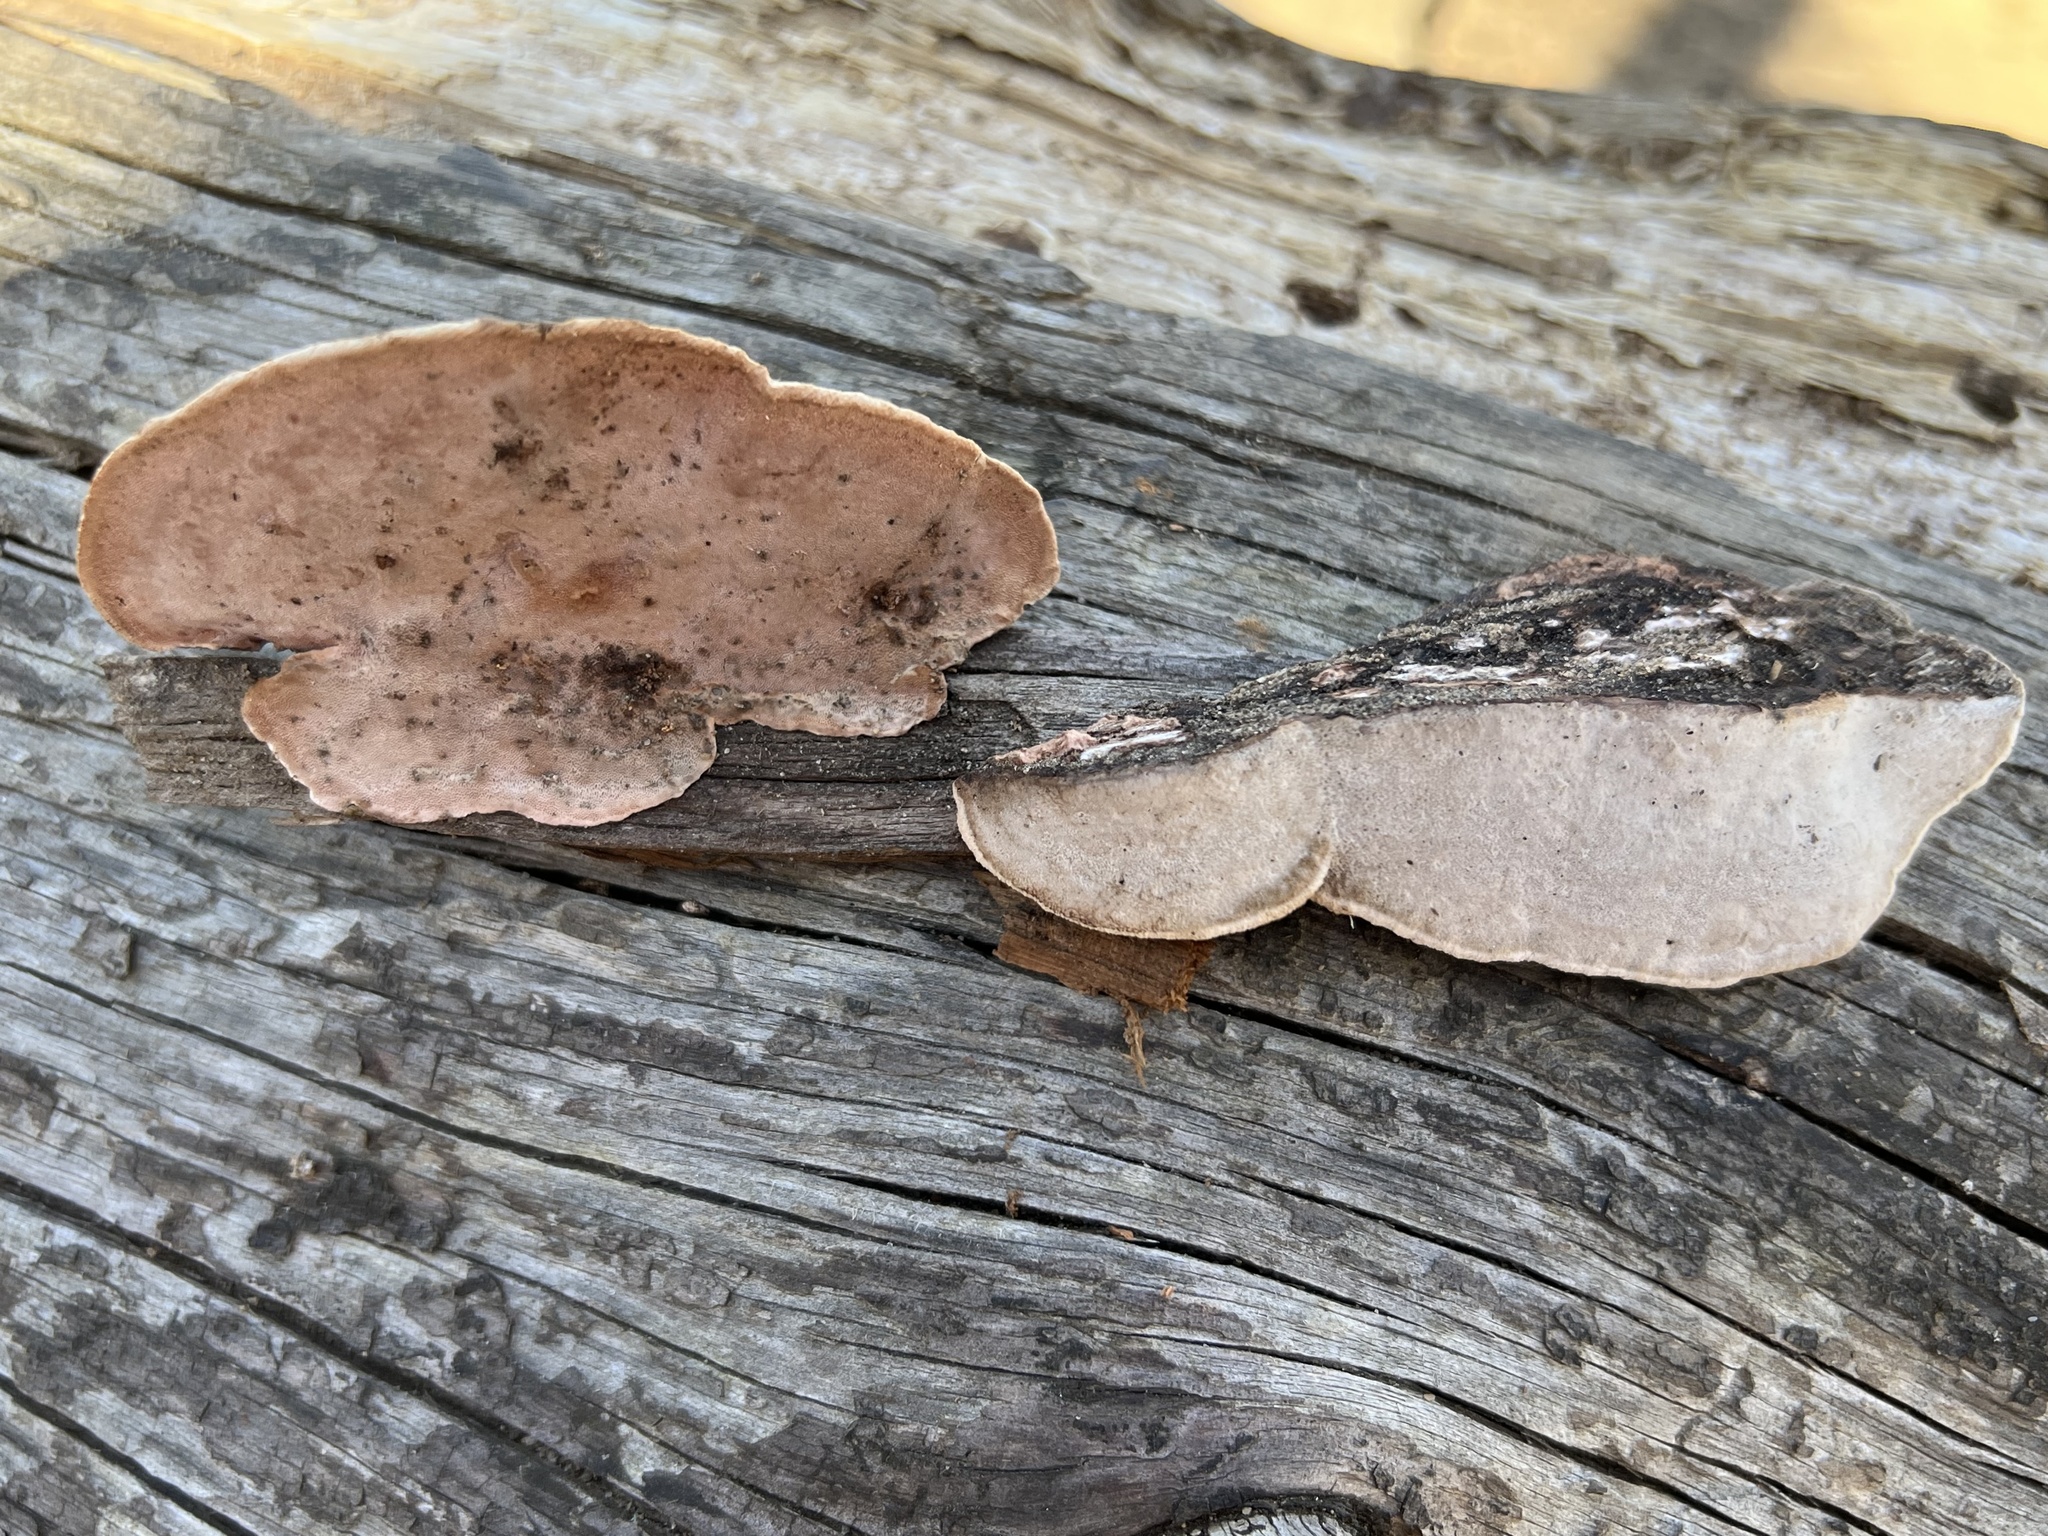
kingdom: Fungi
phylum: Basidiomycota
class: Agaricomycetes
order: Polyporales
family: Fomitopsidaceae
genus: Rhodofomes
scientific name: Rhodofomes cajanderi
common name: Rosy conk
